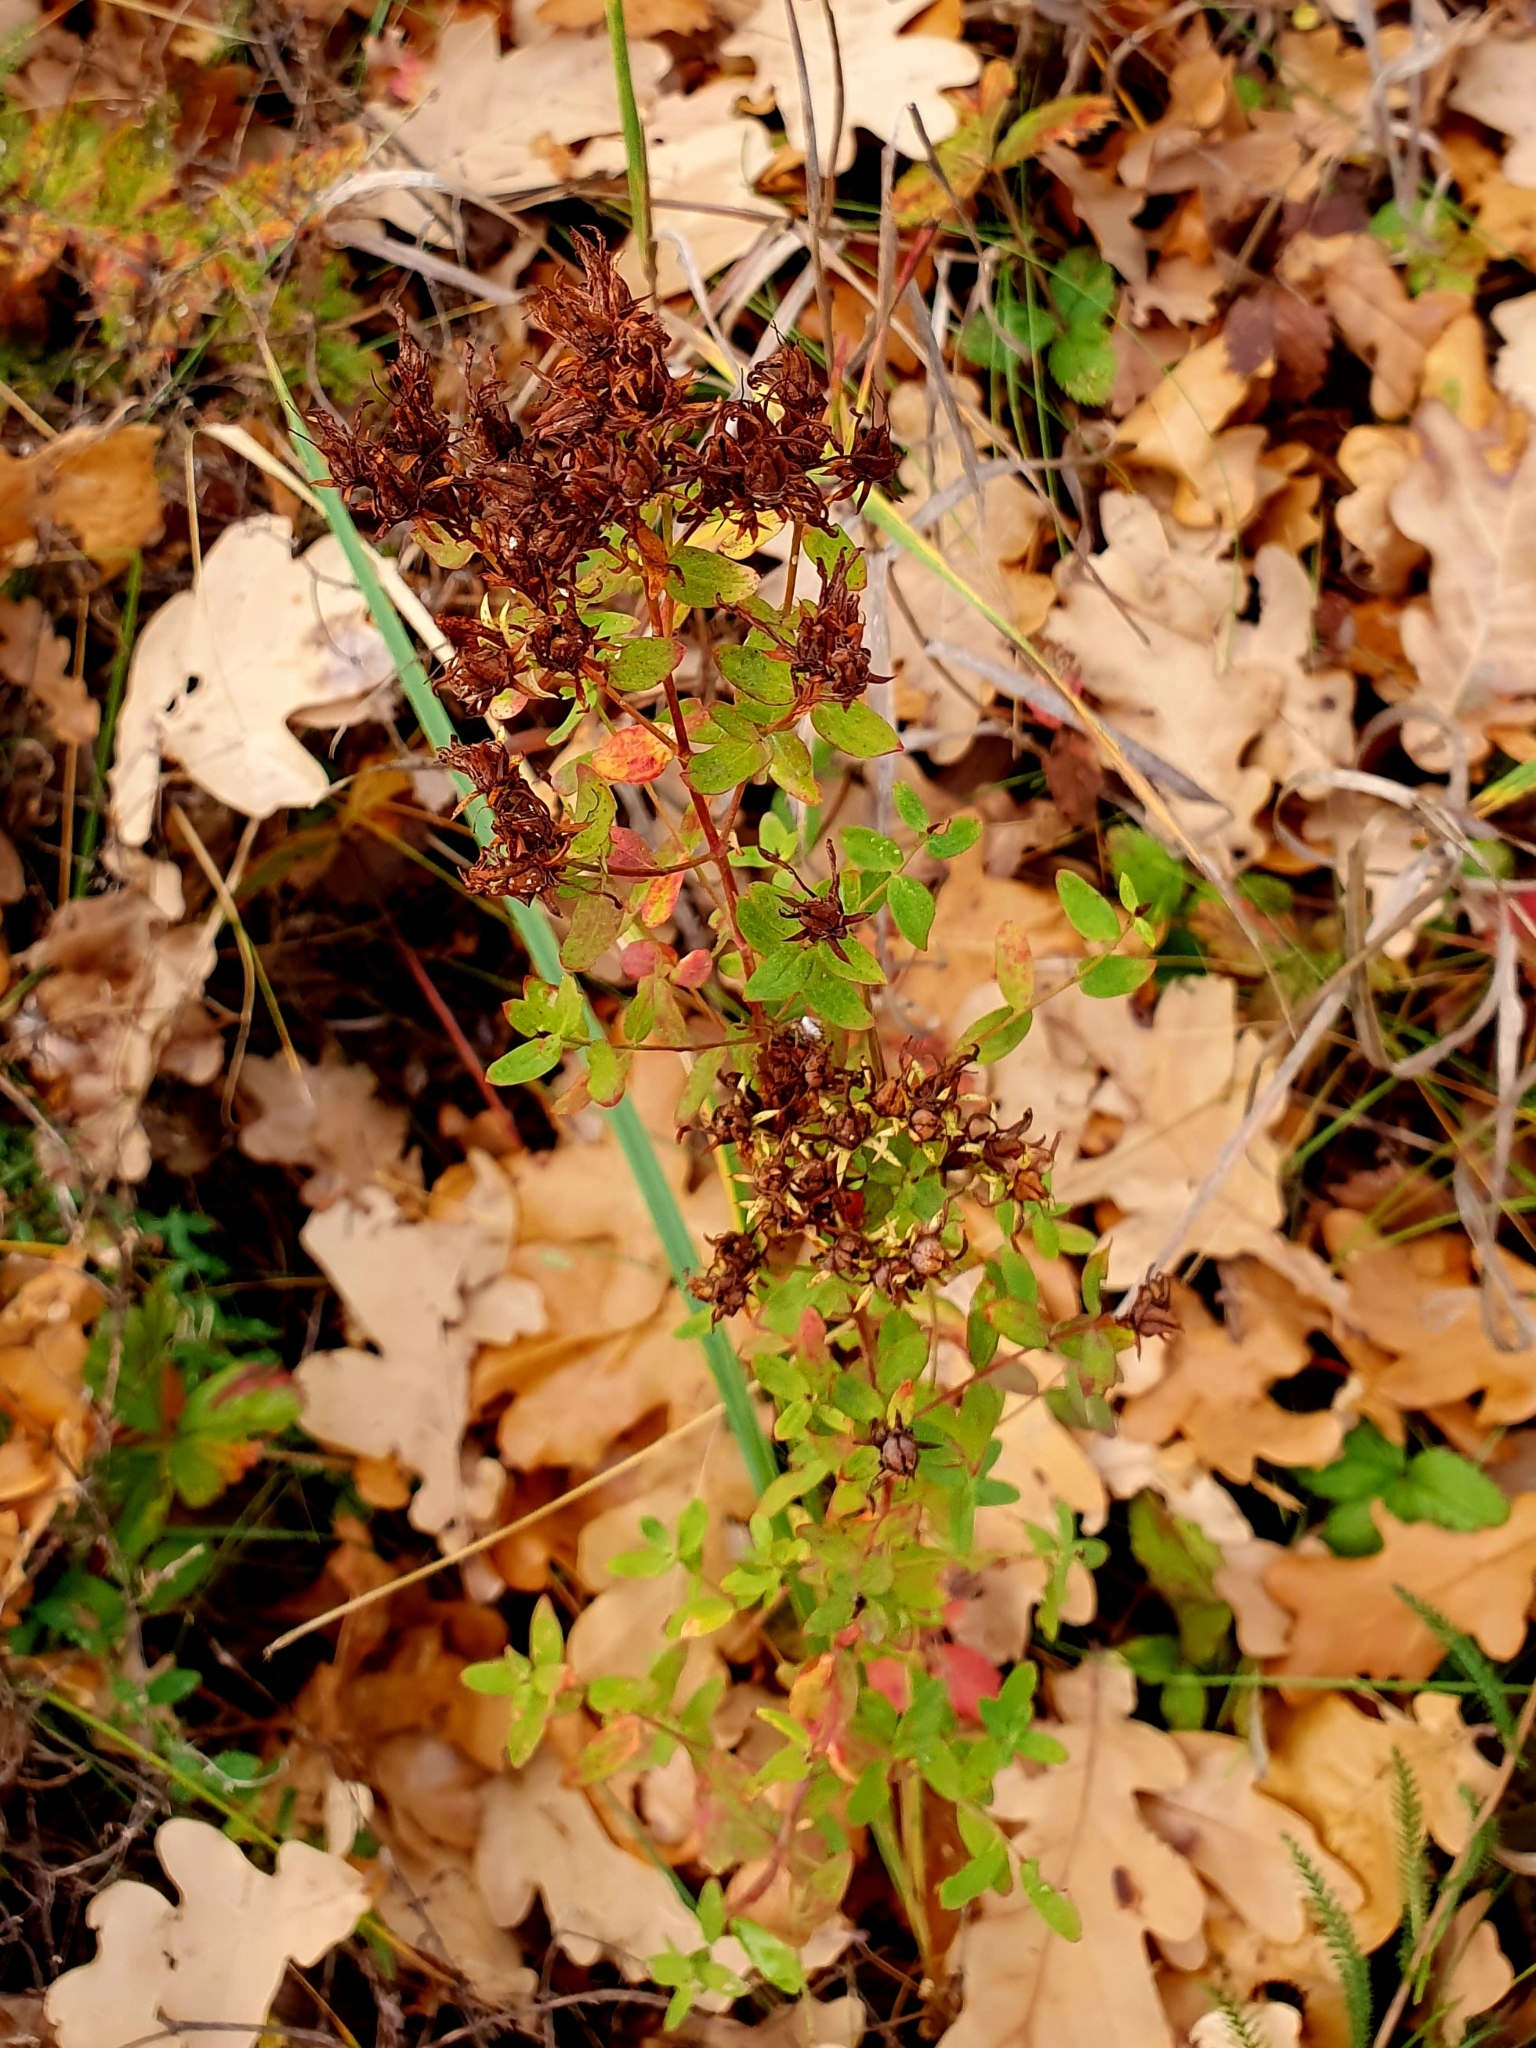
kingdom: Plantae
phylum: Tracheophyta
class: Magnoliopsida
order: Malpighiales
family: Hypericaceae
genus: Hypericum
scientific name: Hypericum perforatum
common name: Common st. johnswort
